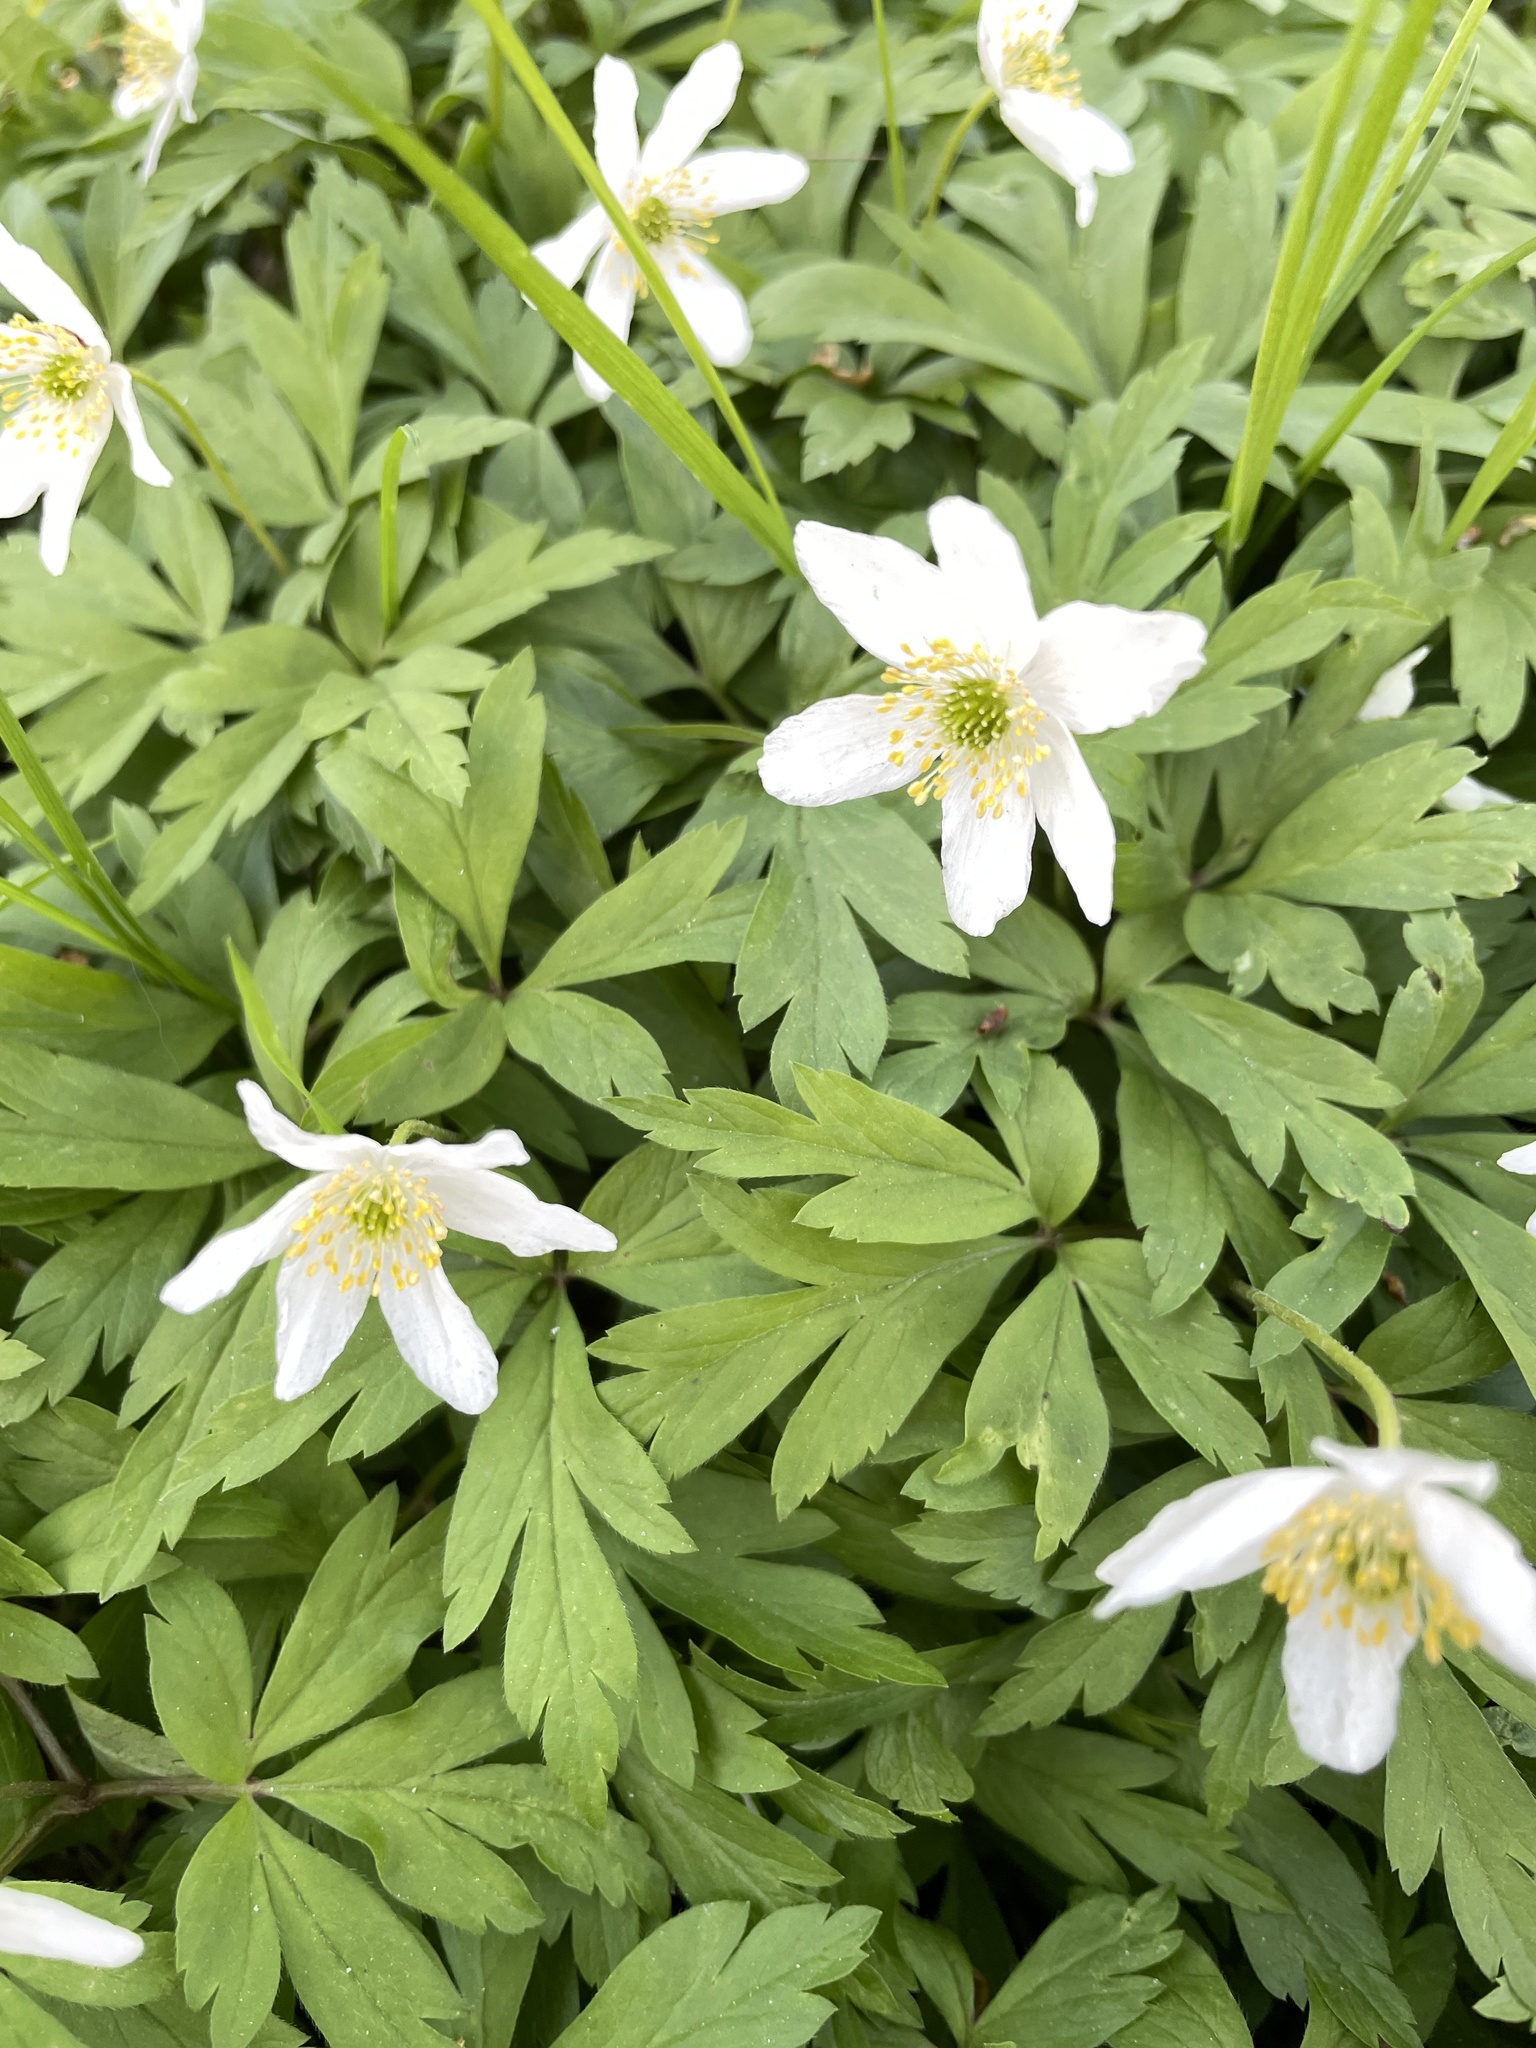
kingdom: Plantae
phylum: Tracheophyta
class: Magnoliopsida
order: Ranunculales
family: Ranunculaceae
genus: Anemone
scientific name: Anemone nemorosa
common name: Wood anemone
